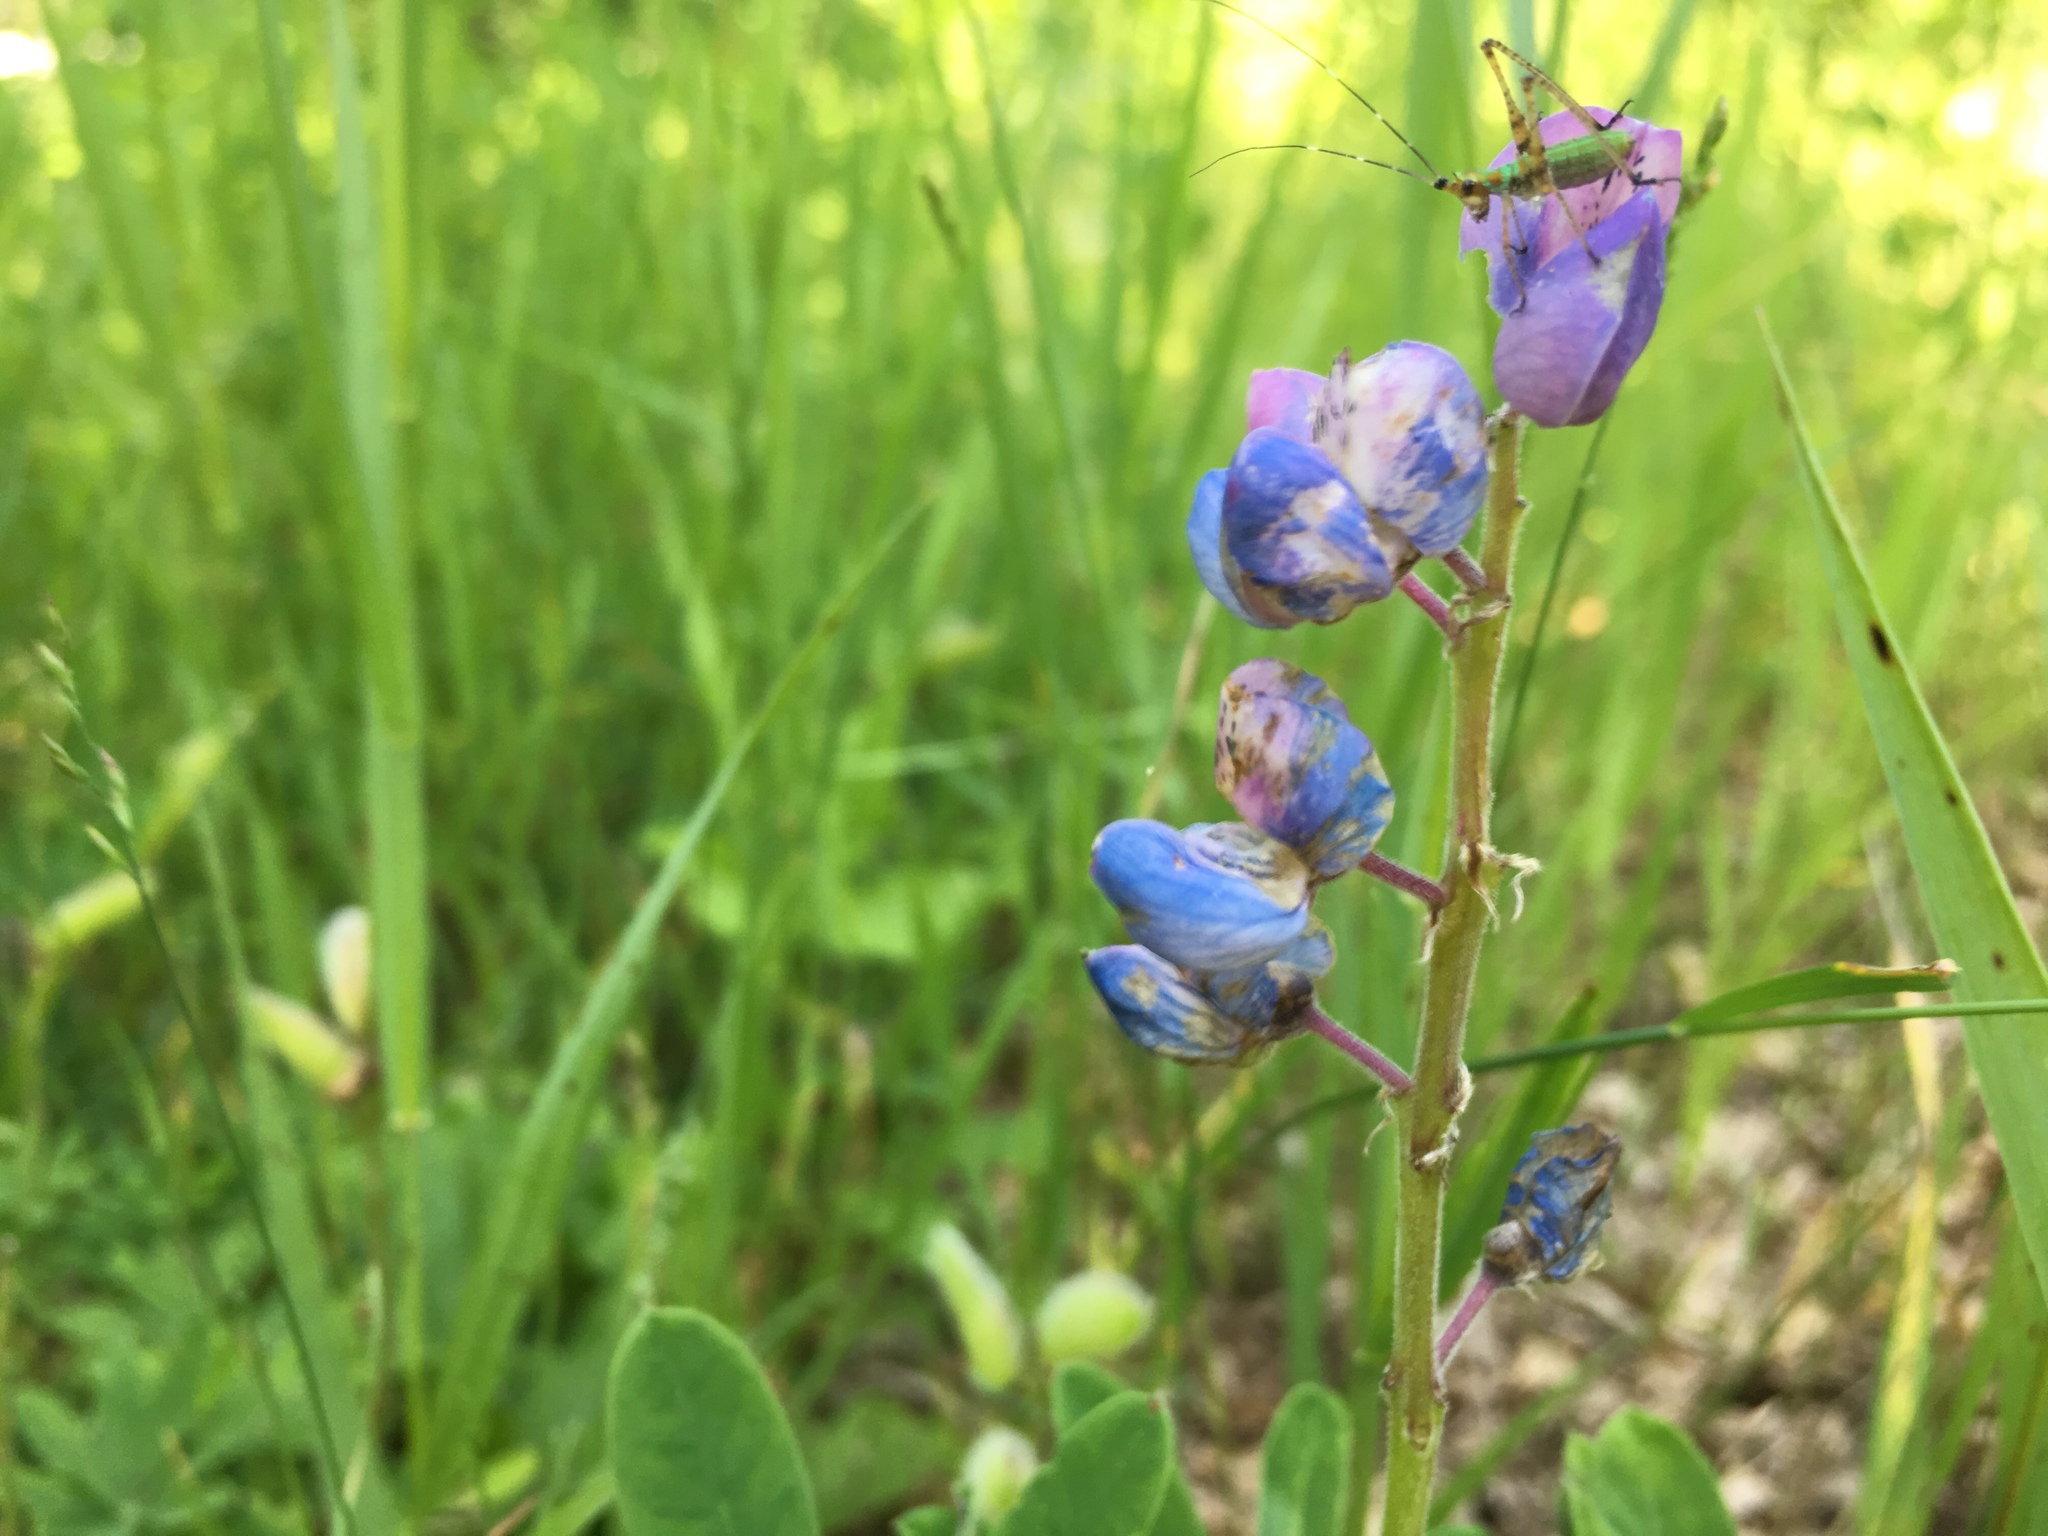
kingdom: Plantae
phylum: Tracheophyta
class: Magnoliopsida
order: Fabales
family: Fabaceae
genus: Lupinus
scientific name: Lupinus perennis
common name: Sundial lupine
